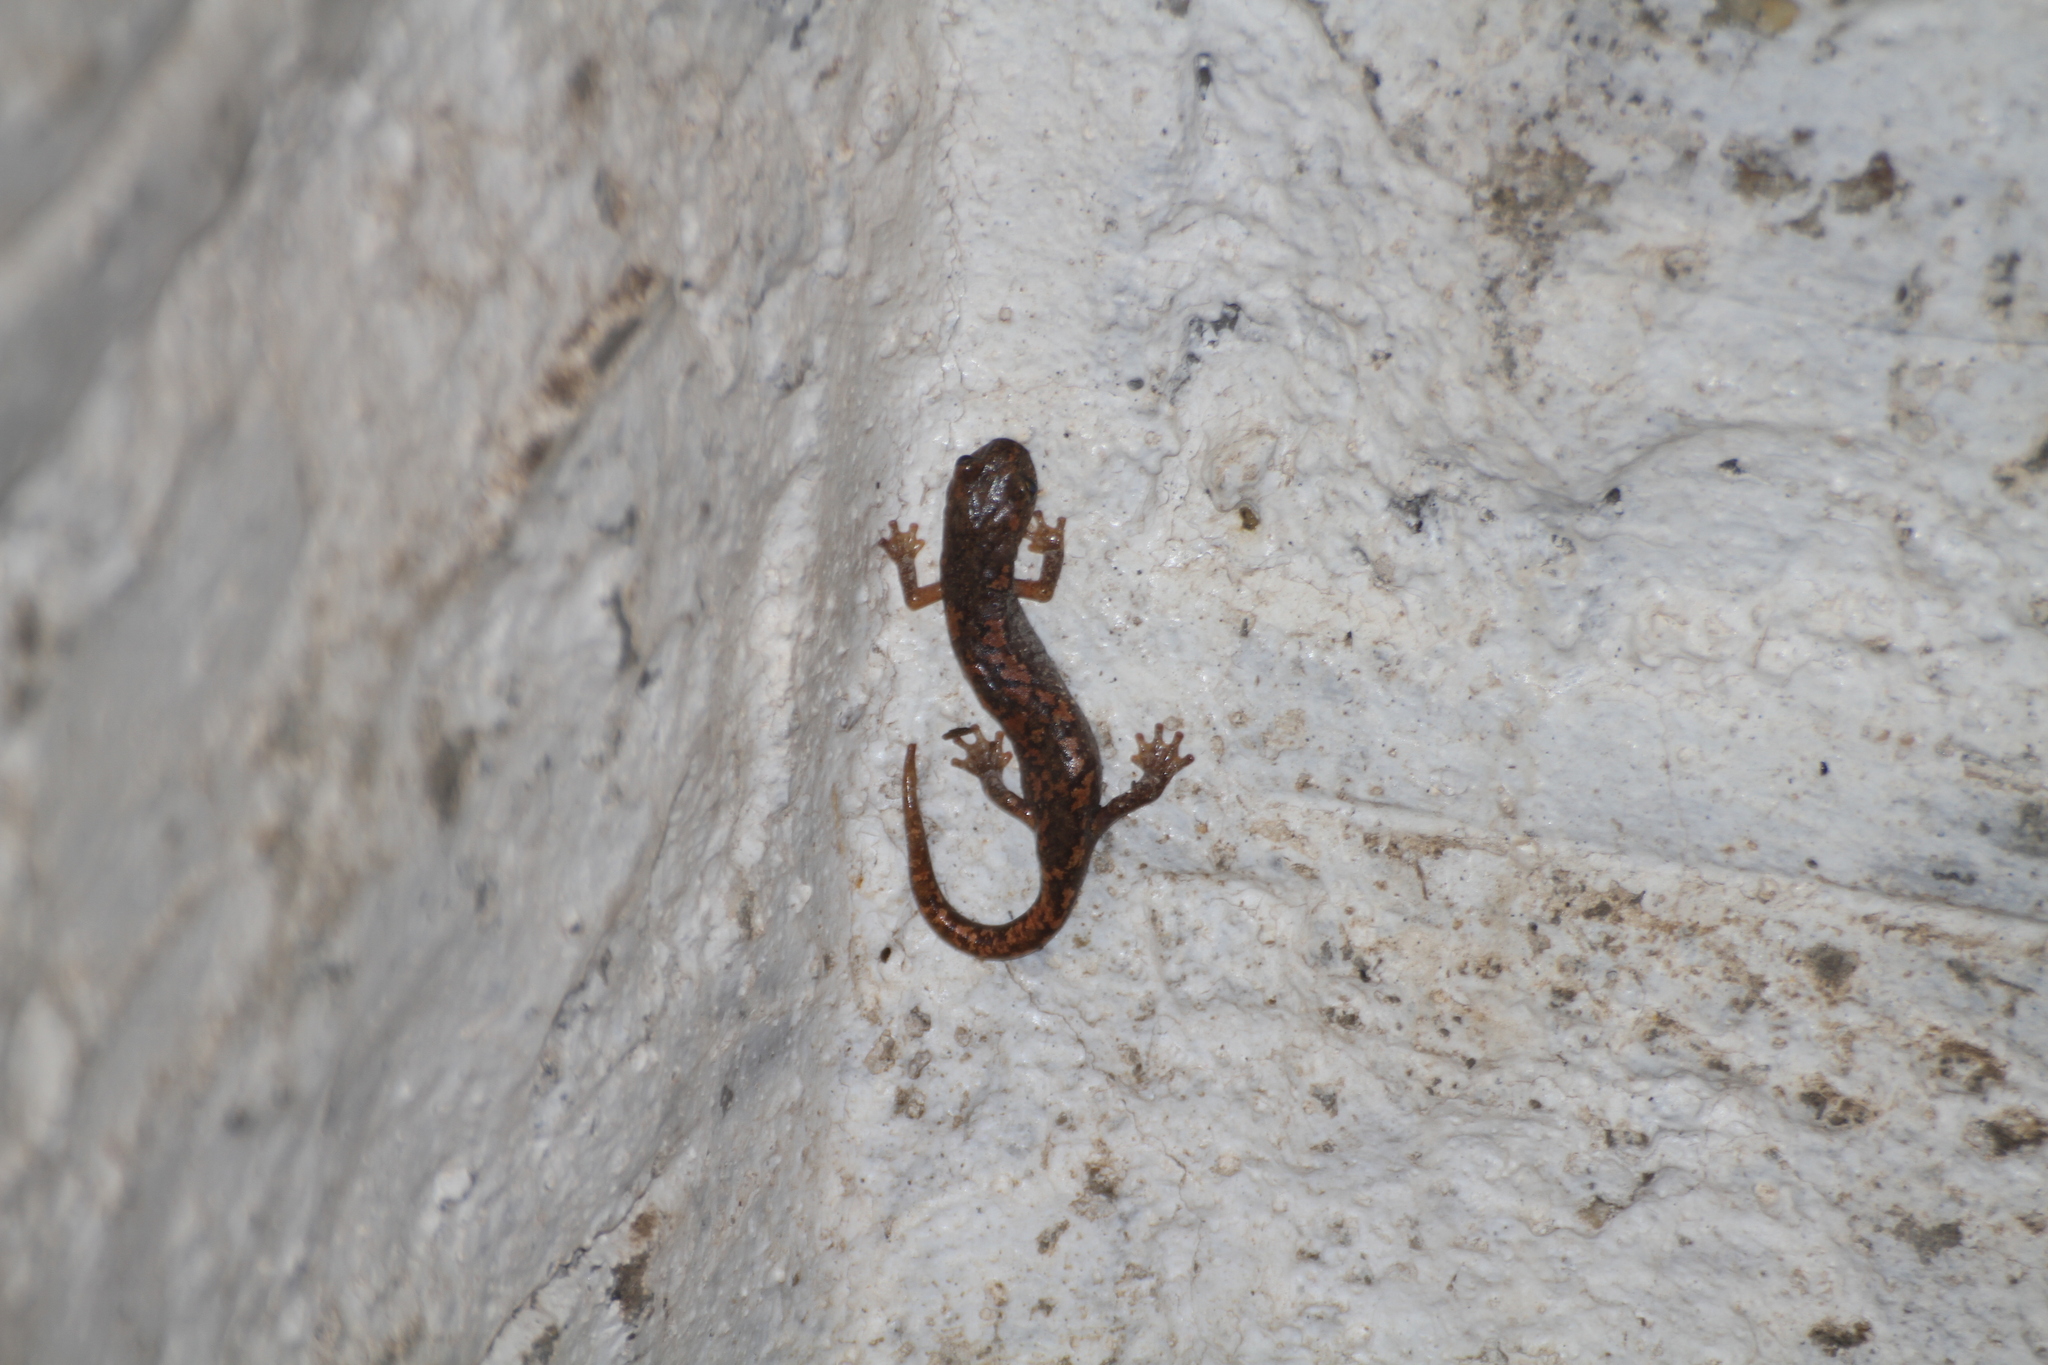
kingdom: Animalia
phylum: Chordata
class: Amphibia
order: Caudata
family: Plethodontidae
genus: Speleomantes
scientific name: Speleomantes strinatii
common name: French cave salamander
